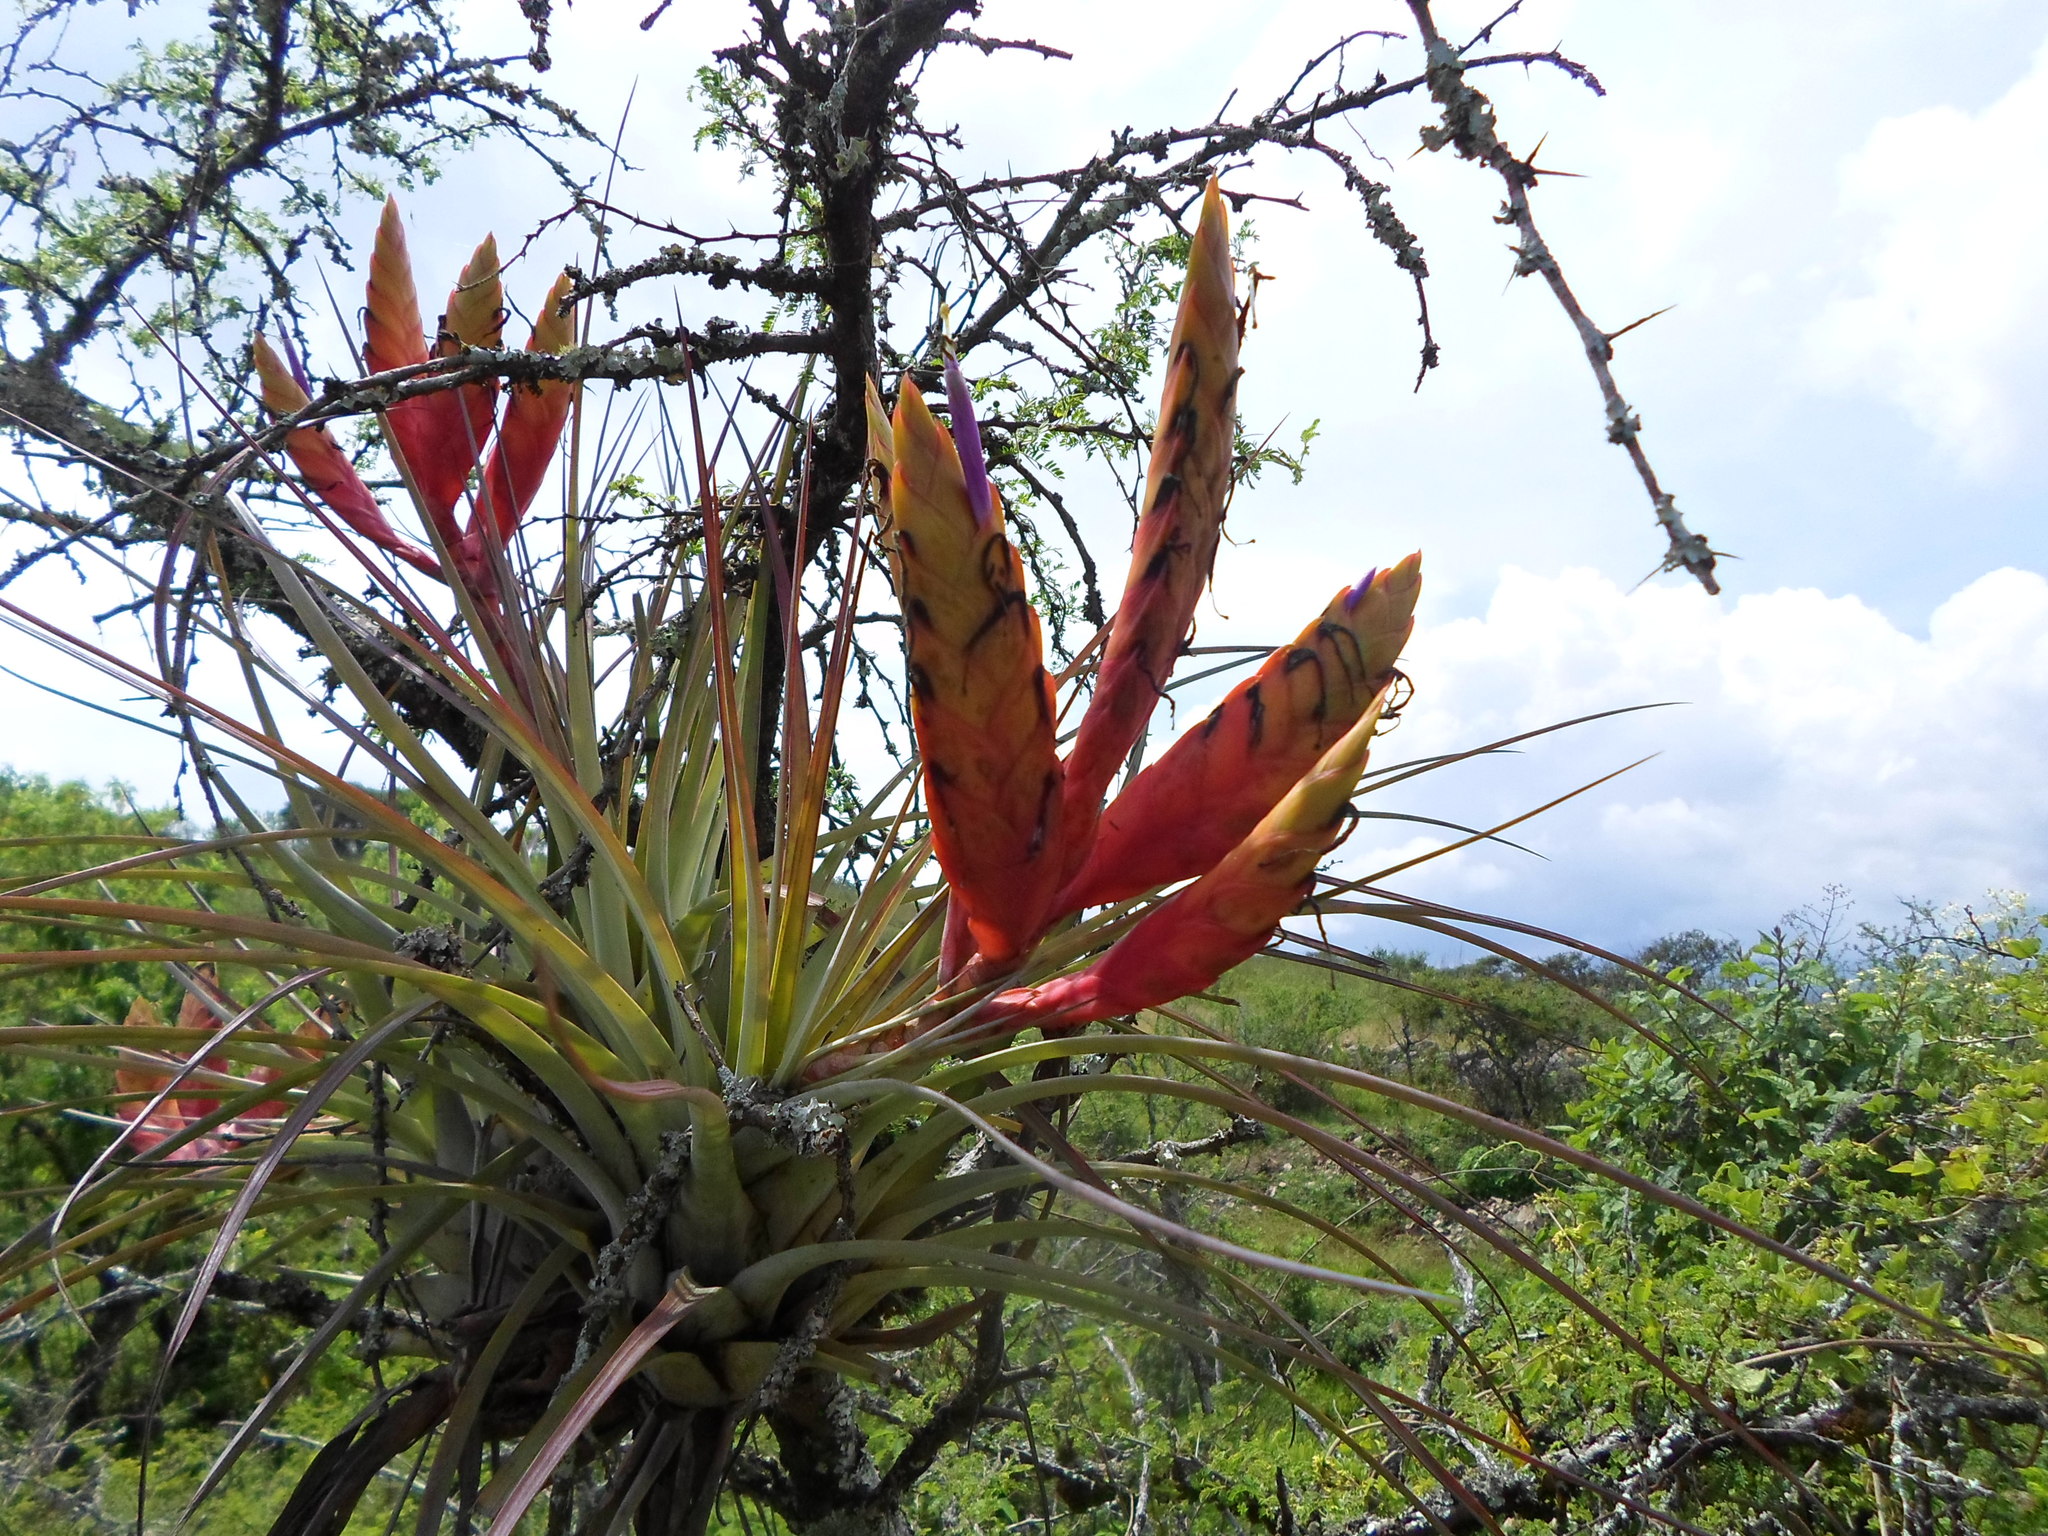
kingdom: Plantae
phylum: Tracheophyta
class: Liliopsida
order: Poales
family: Bromeliaceae
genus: Tillandsia
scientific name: Tillandsia fasciculata
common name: Giant airplant
